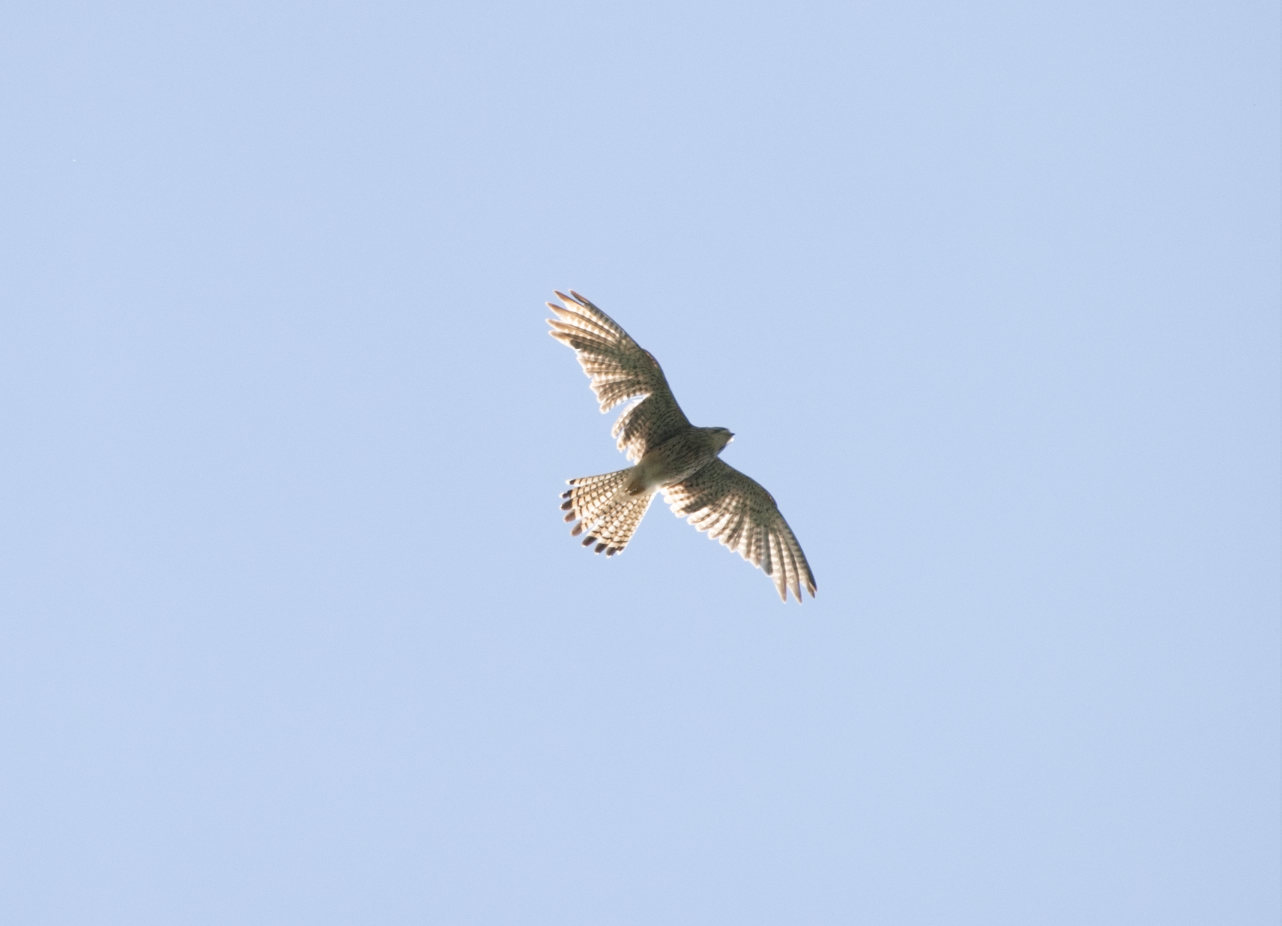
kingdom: Animalia
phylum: Chordata
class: Aves
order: Falconiformes
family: Falconidae
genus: Falco
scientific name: Falco tinnunculus
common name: Common kestrel
